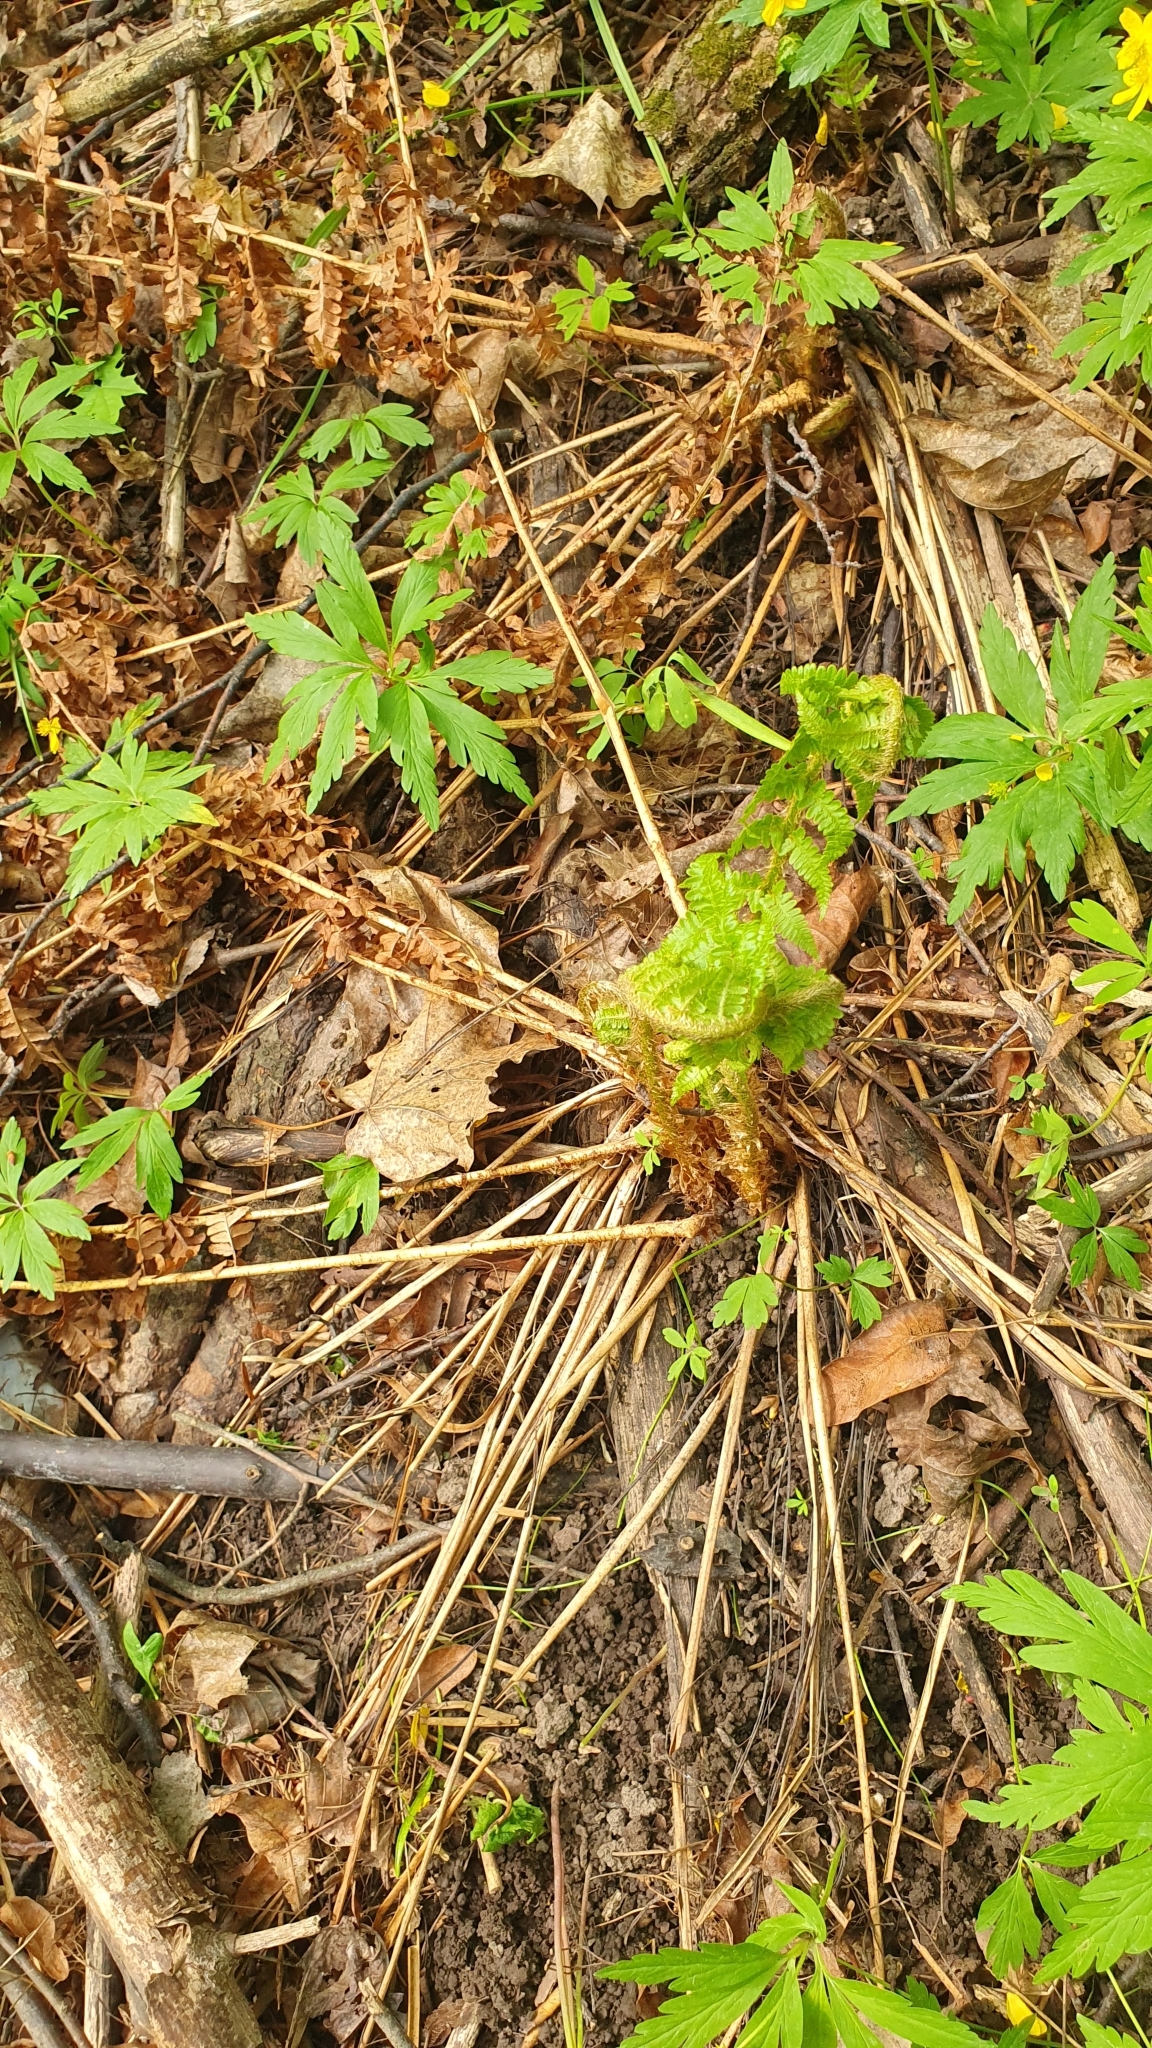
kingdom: Plantae
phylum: Tracheophyta
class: Polypodiopsida
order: Polypodiales
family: Dryopteridaceae
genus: Dryopteris
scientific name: Dryopteris filix-mas
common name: Male fern
